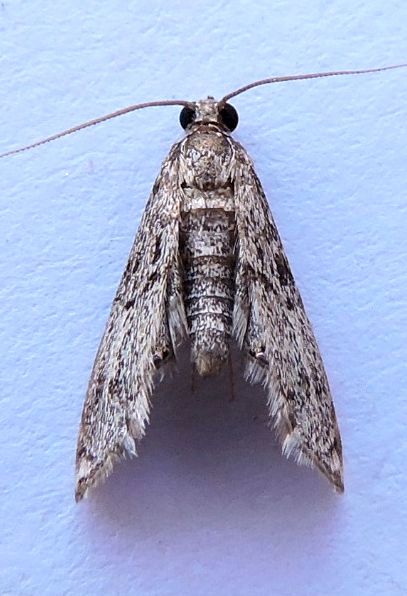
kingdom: Animalia
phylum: Arthropoda
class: Insecta
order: Lepidoptera
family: Crambidae
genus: Petrophila
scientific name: Petrophila schaefferalis
